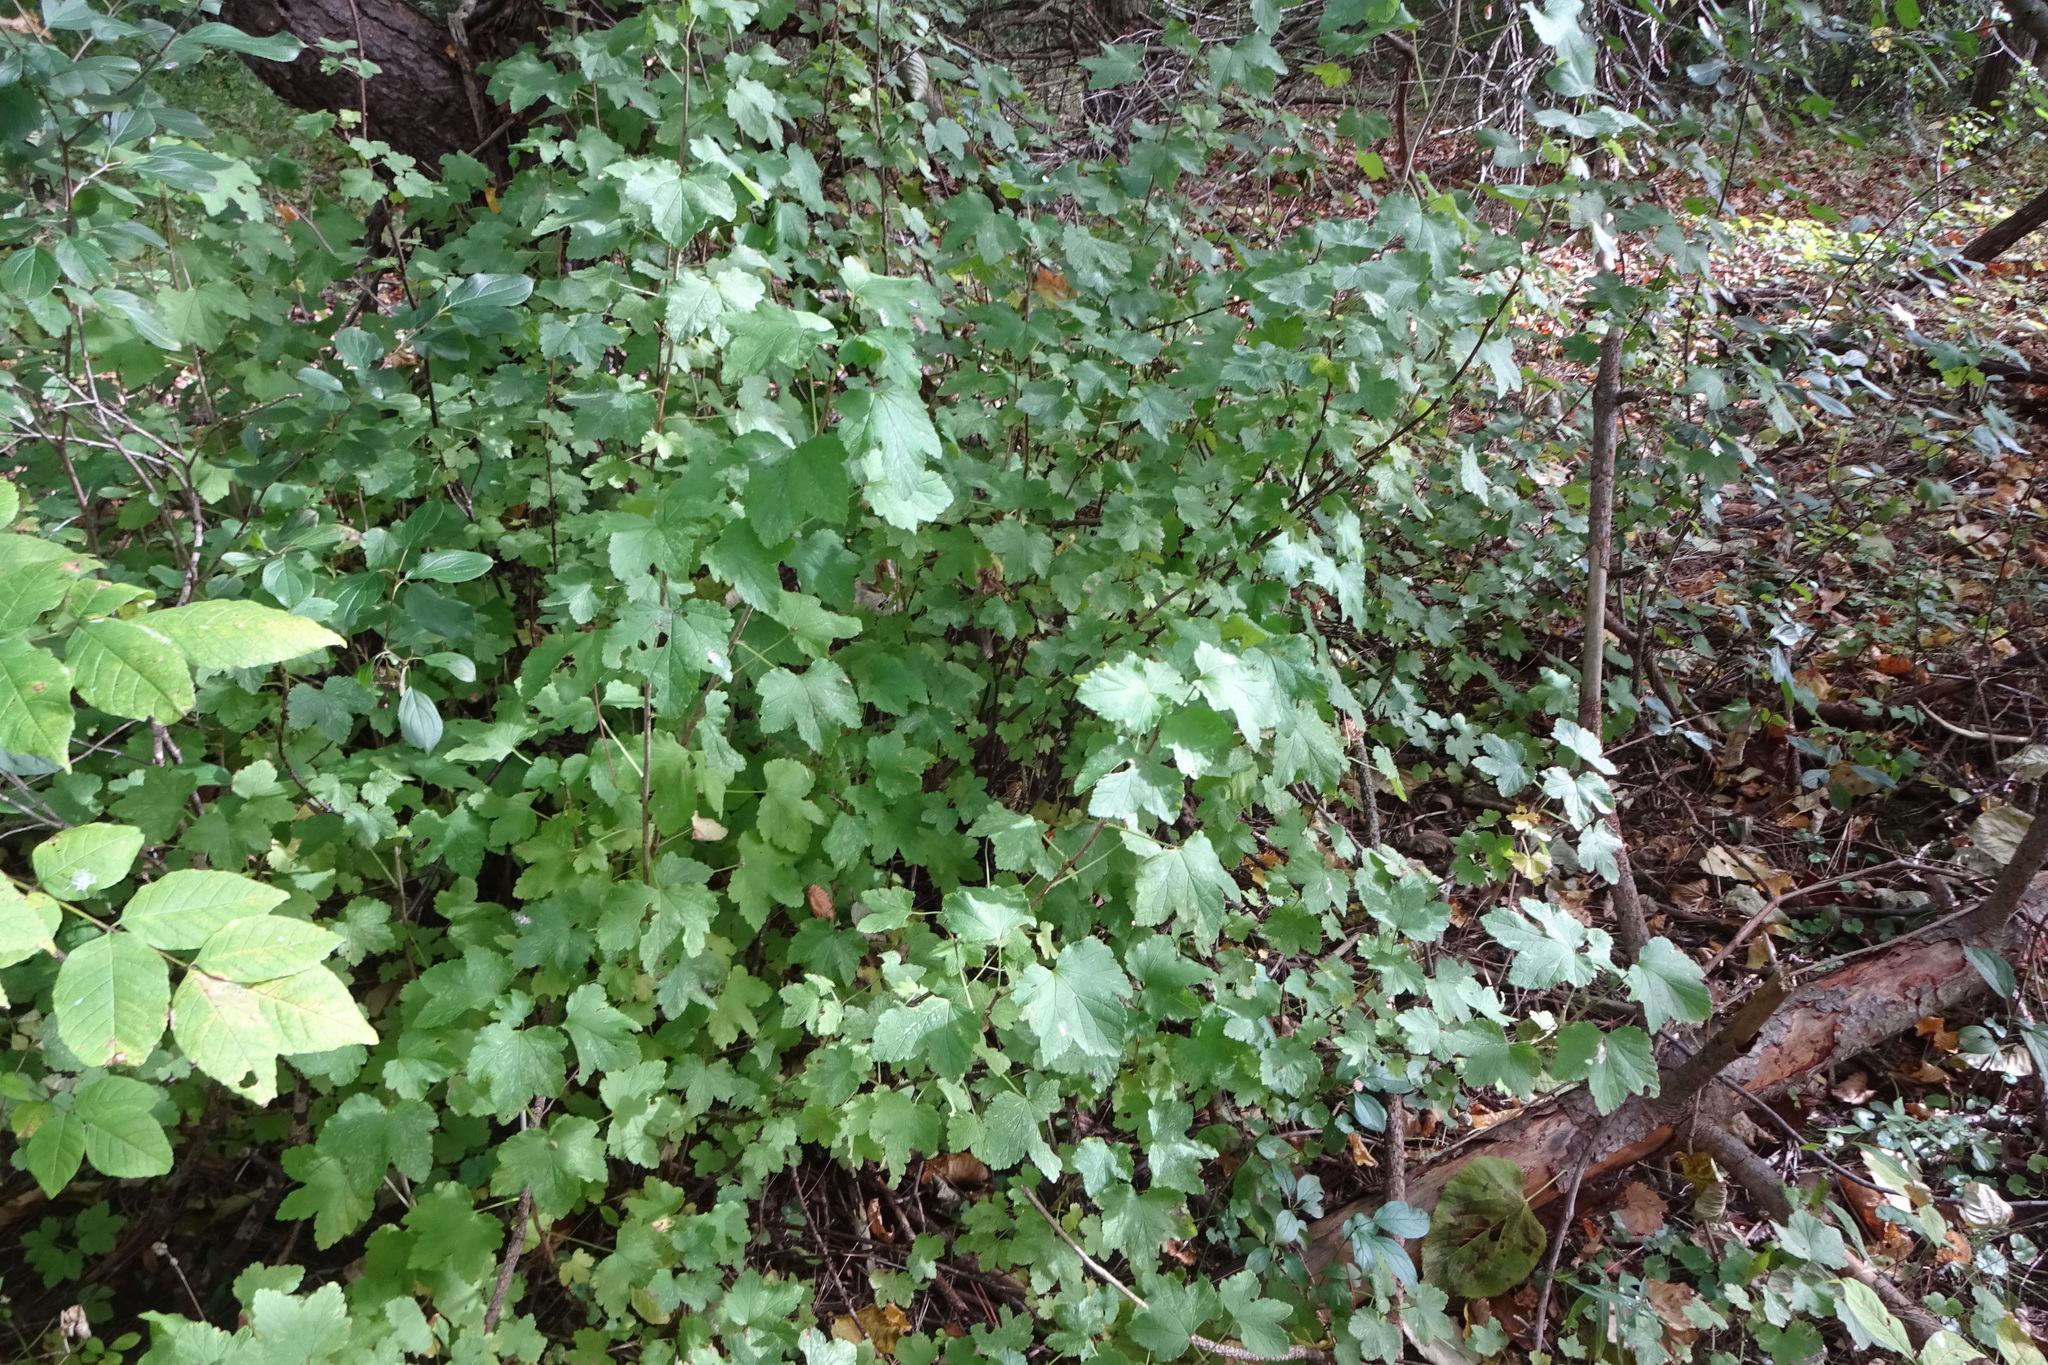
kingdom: Plantae
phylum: Tracheophyta
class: Magnoliopsida
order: Saxifragales
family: Grossulariaceae
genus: Ribes
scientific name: Ribes rubrum
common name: Red currant
